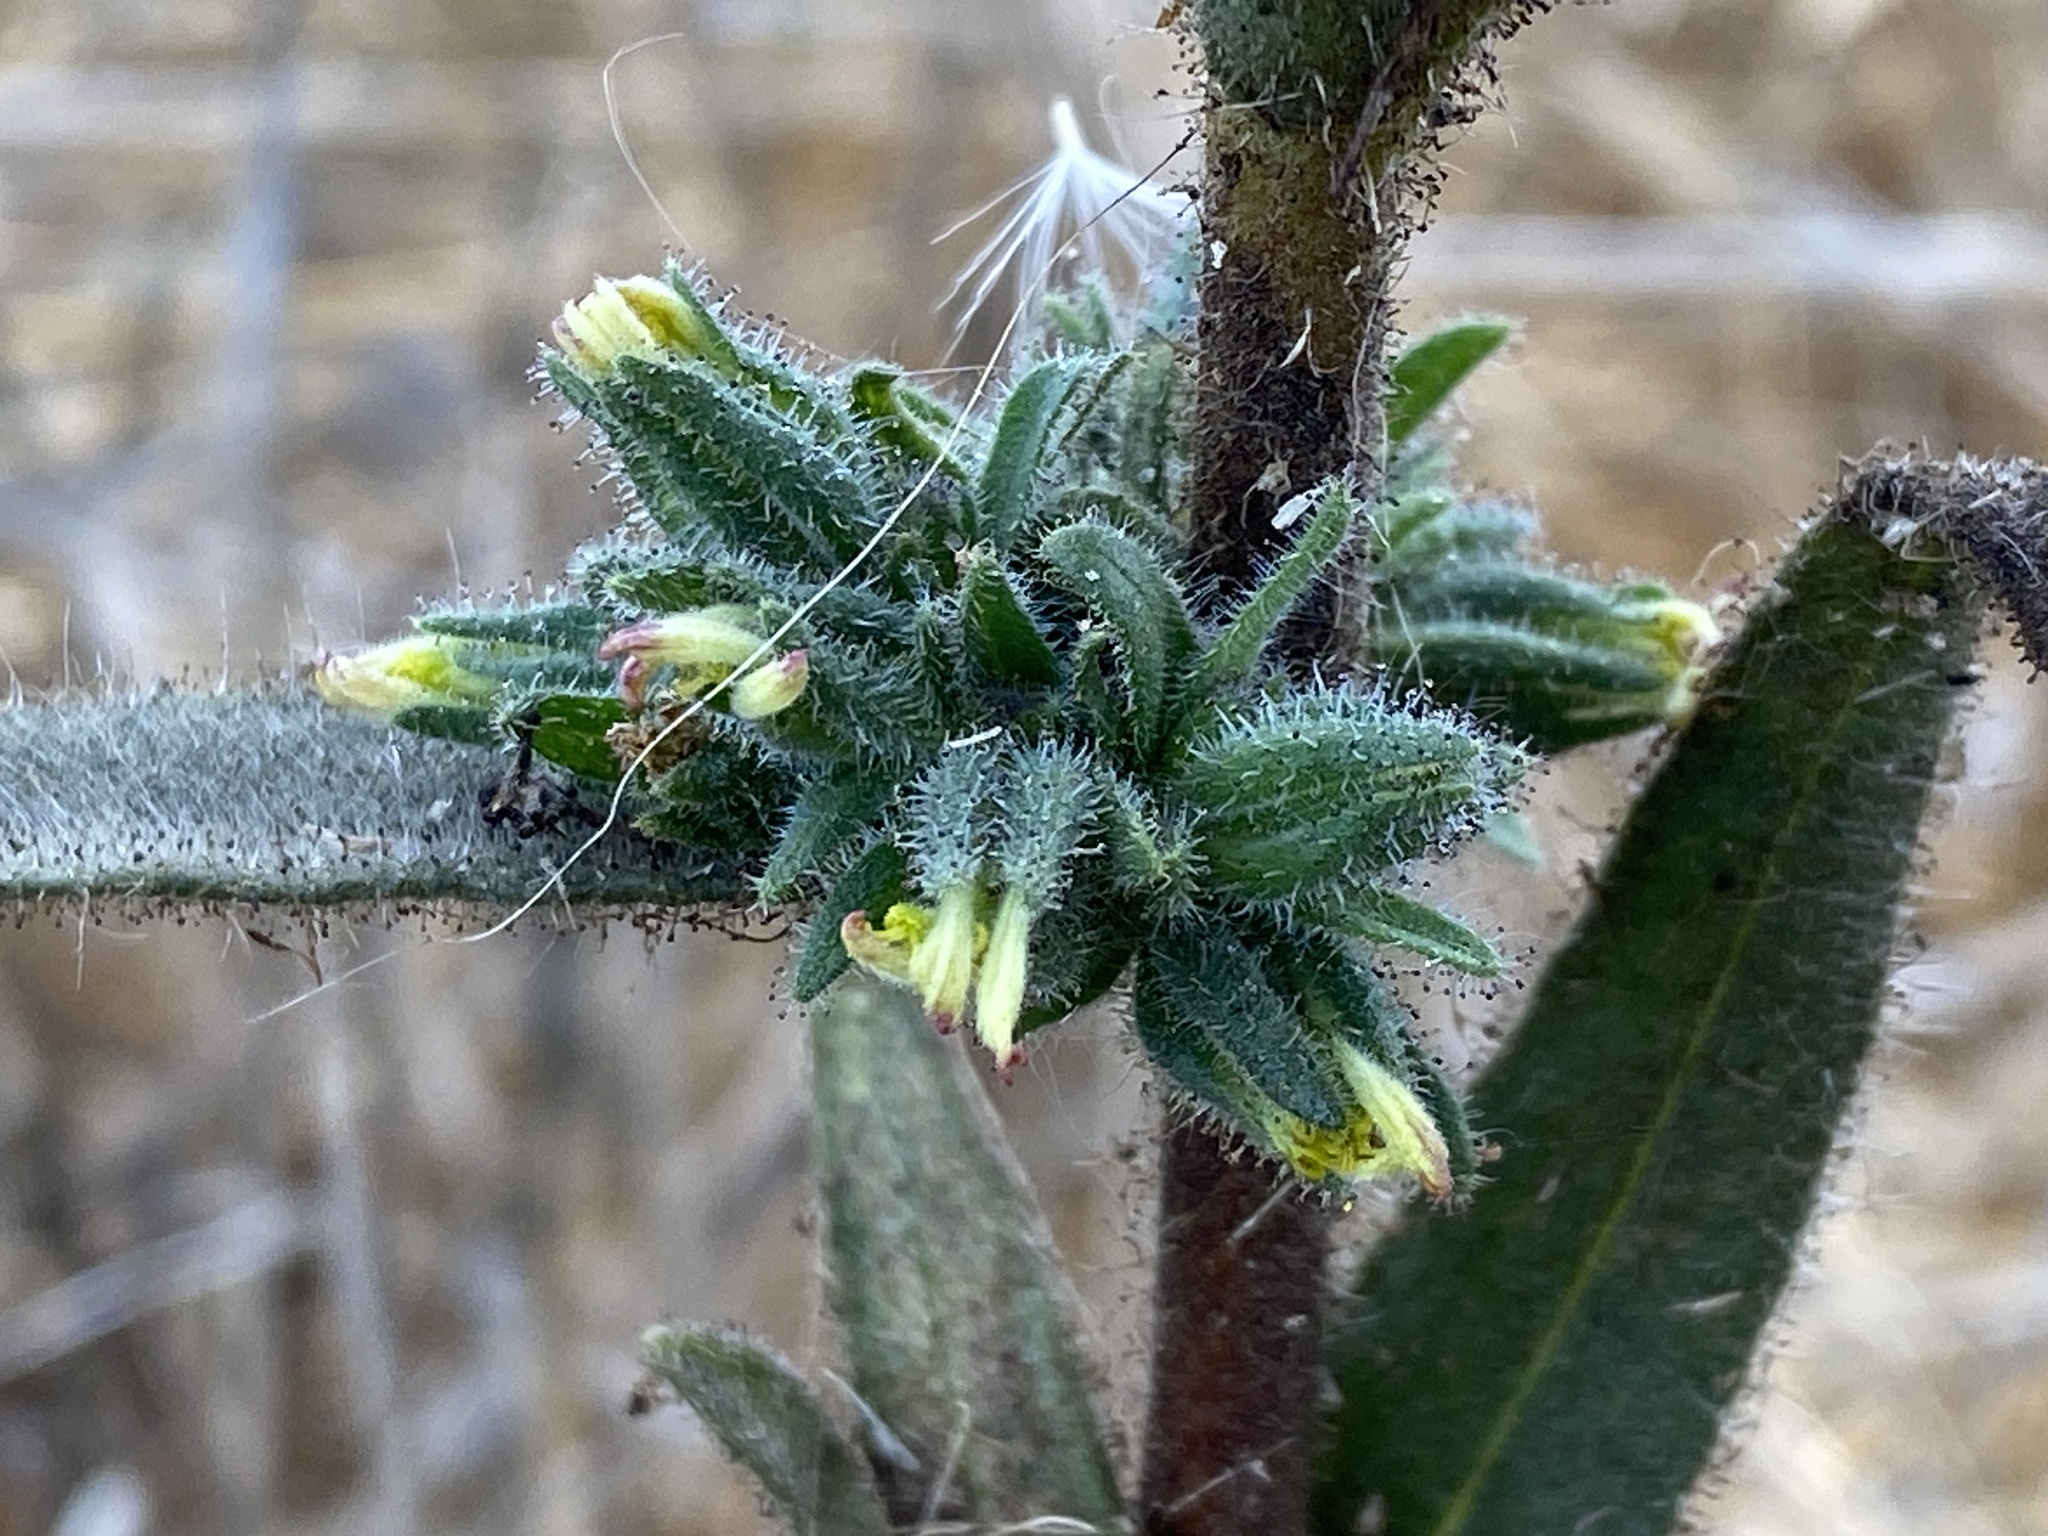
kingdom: Plantae
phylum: Tracheophyta
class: Magnoliopsida
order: Asterales
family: Asteraceae
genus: Madia
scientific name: Madia sativa
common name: Coast tarweed
